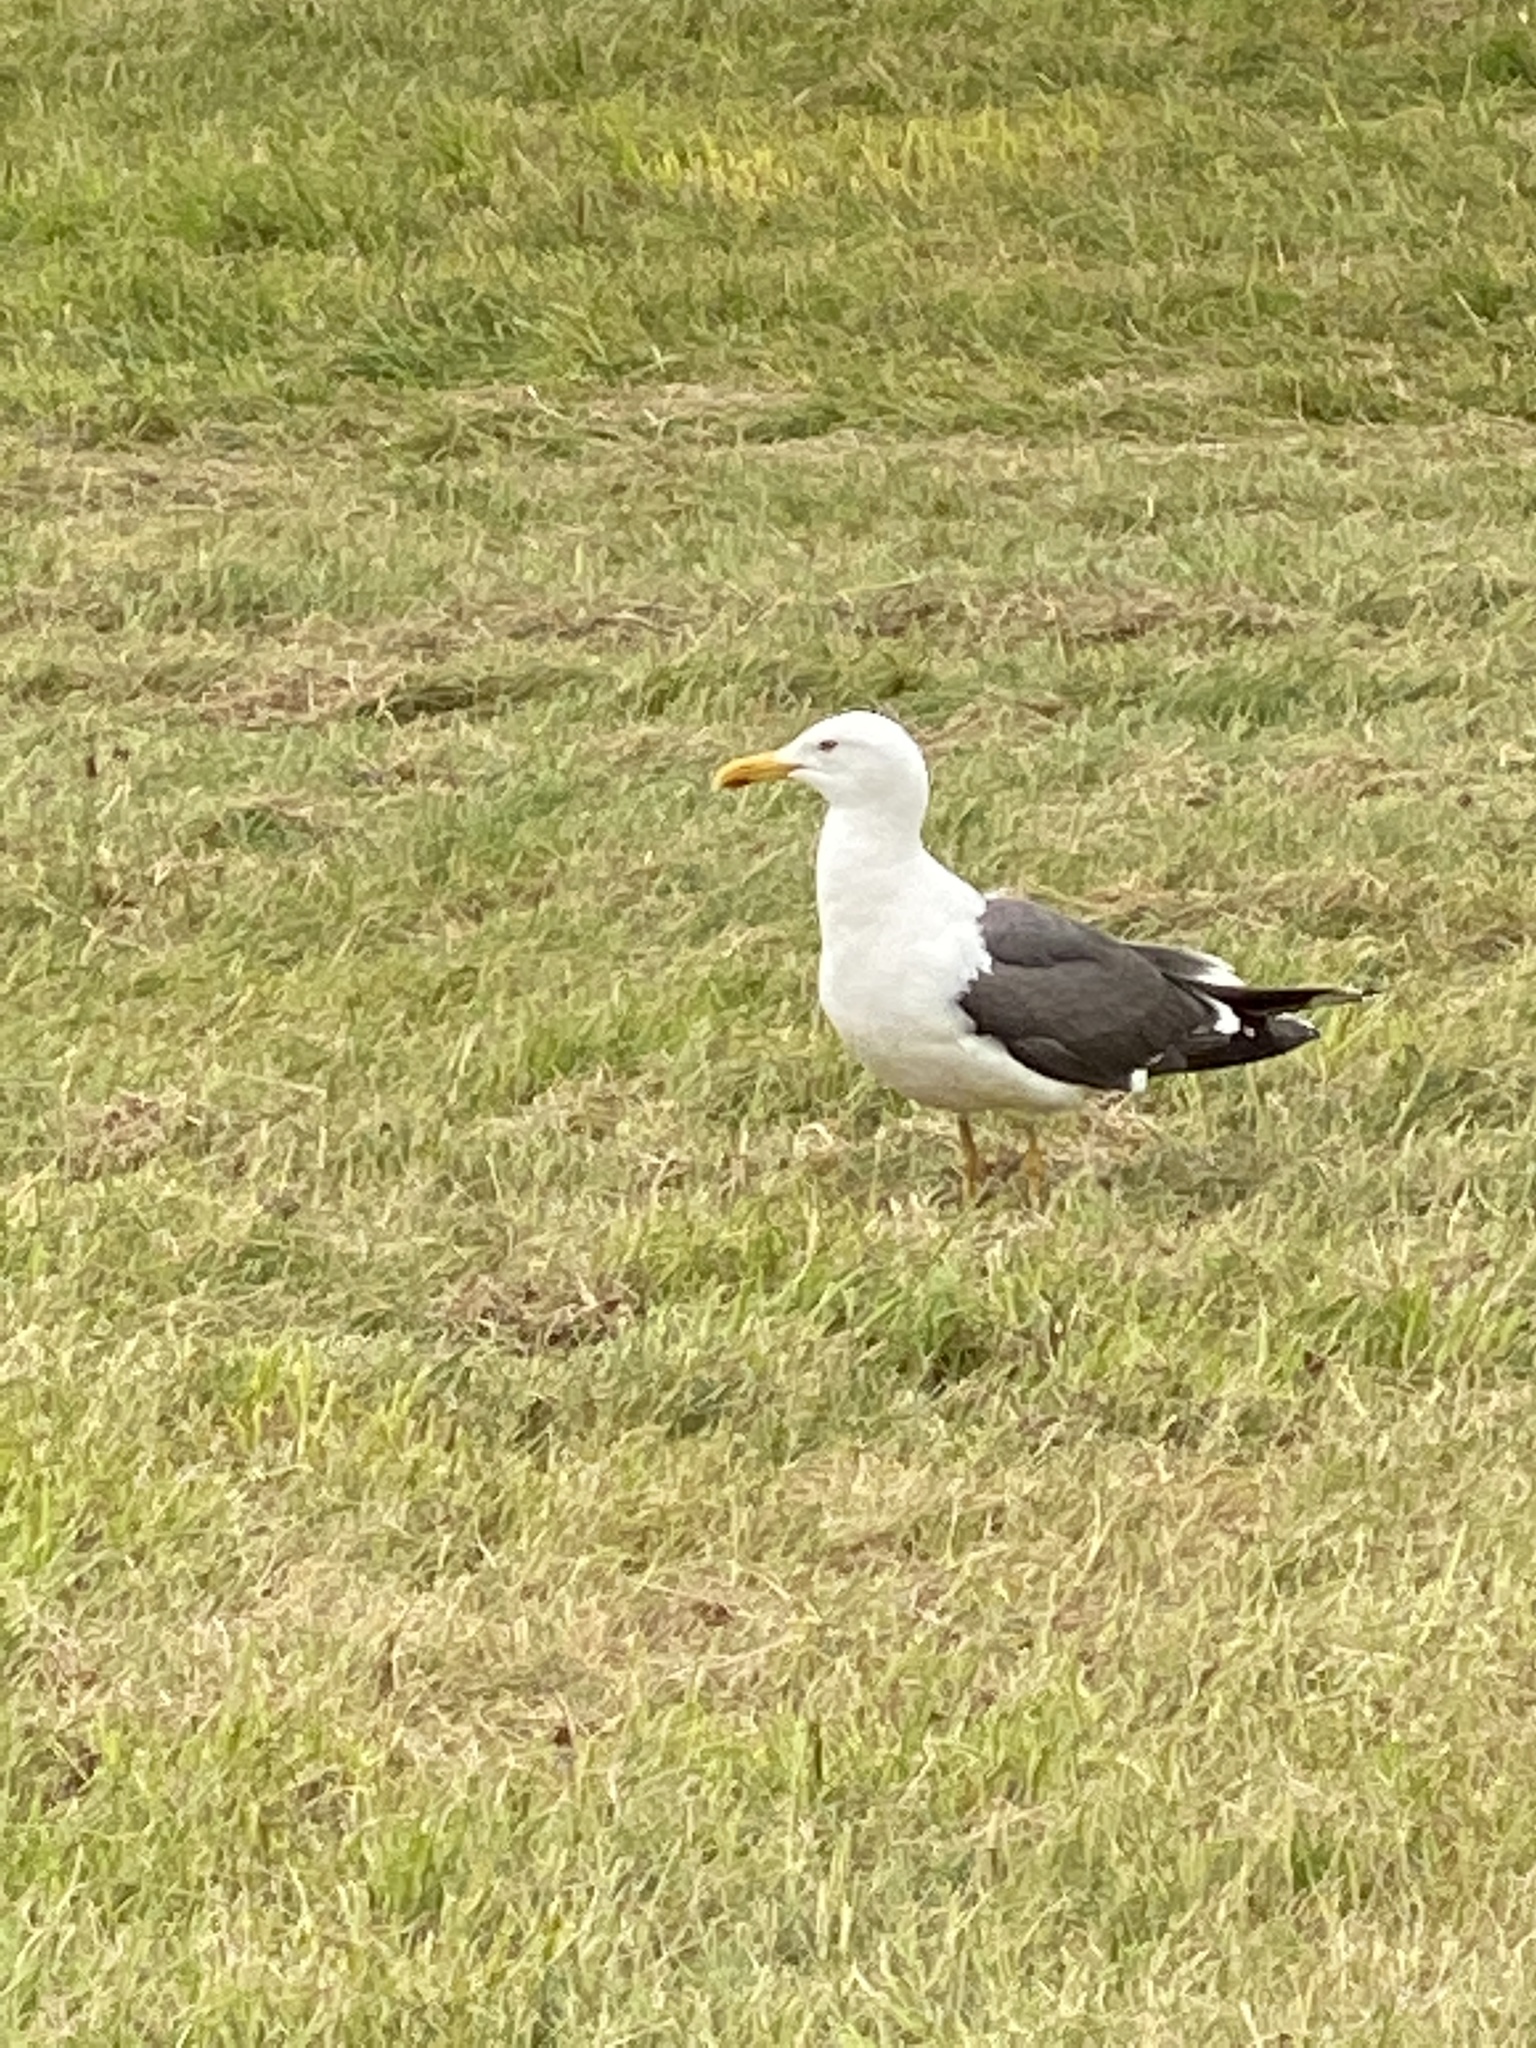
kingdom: Animalia
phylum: Chordata
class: Aves
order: Charadriiformes
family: Laridae
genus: Larus
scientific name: Larus fuscus
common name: Lesser black-backed gull
